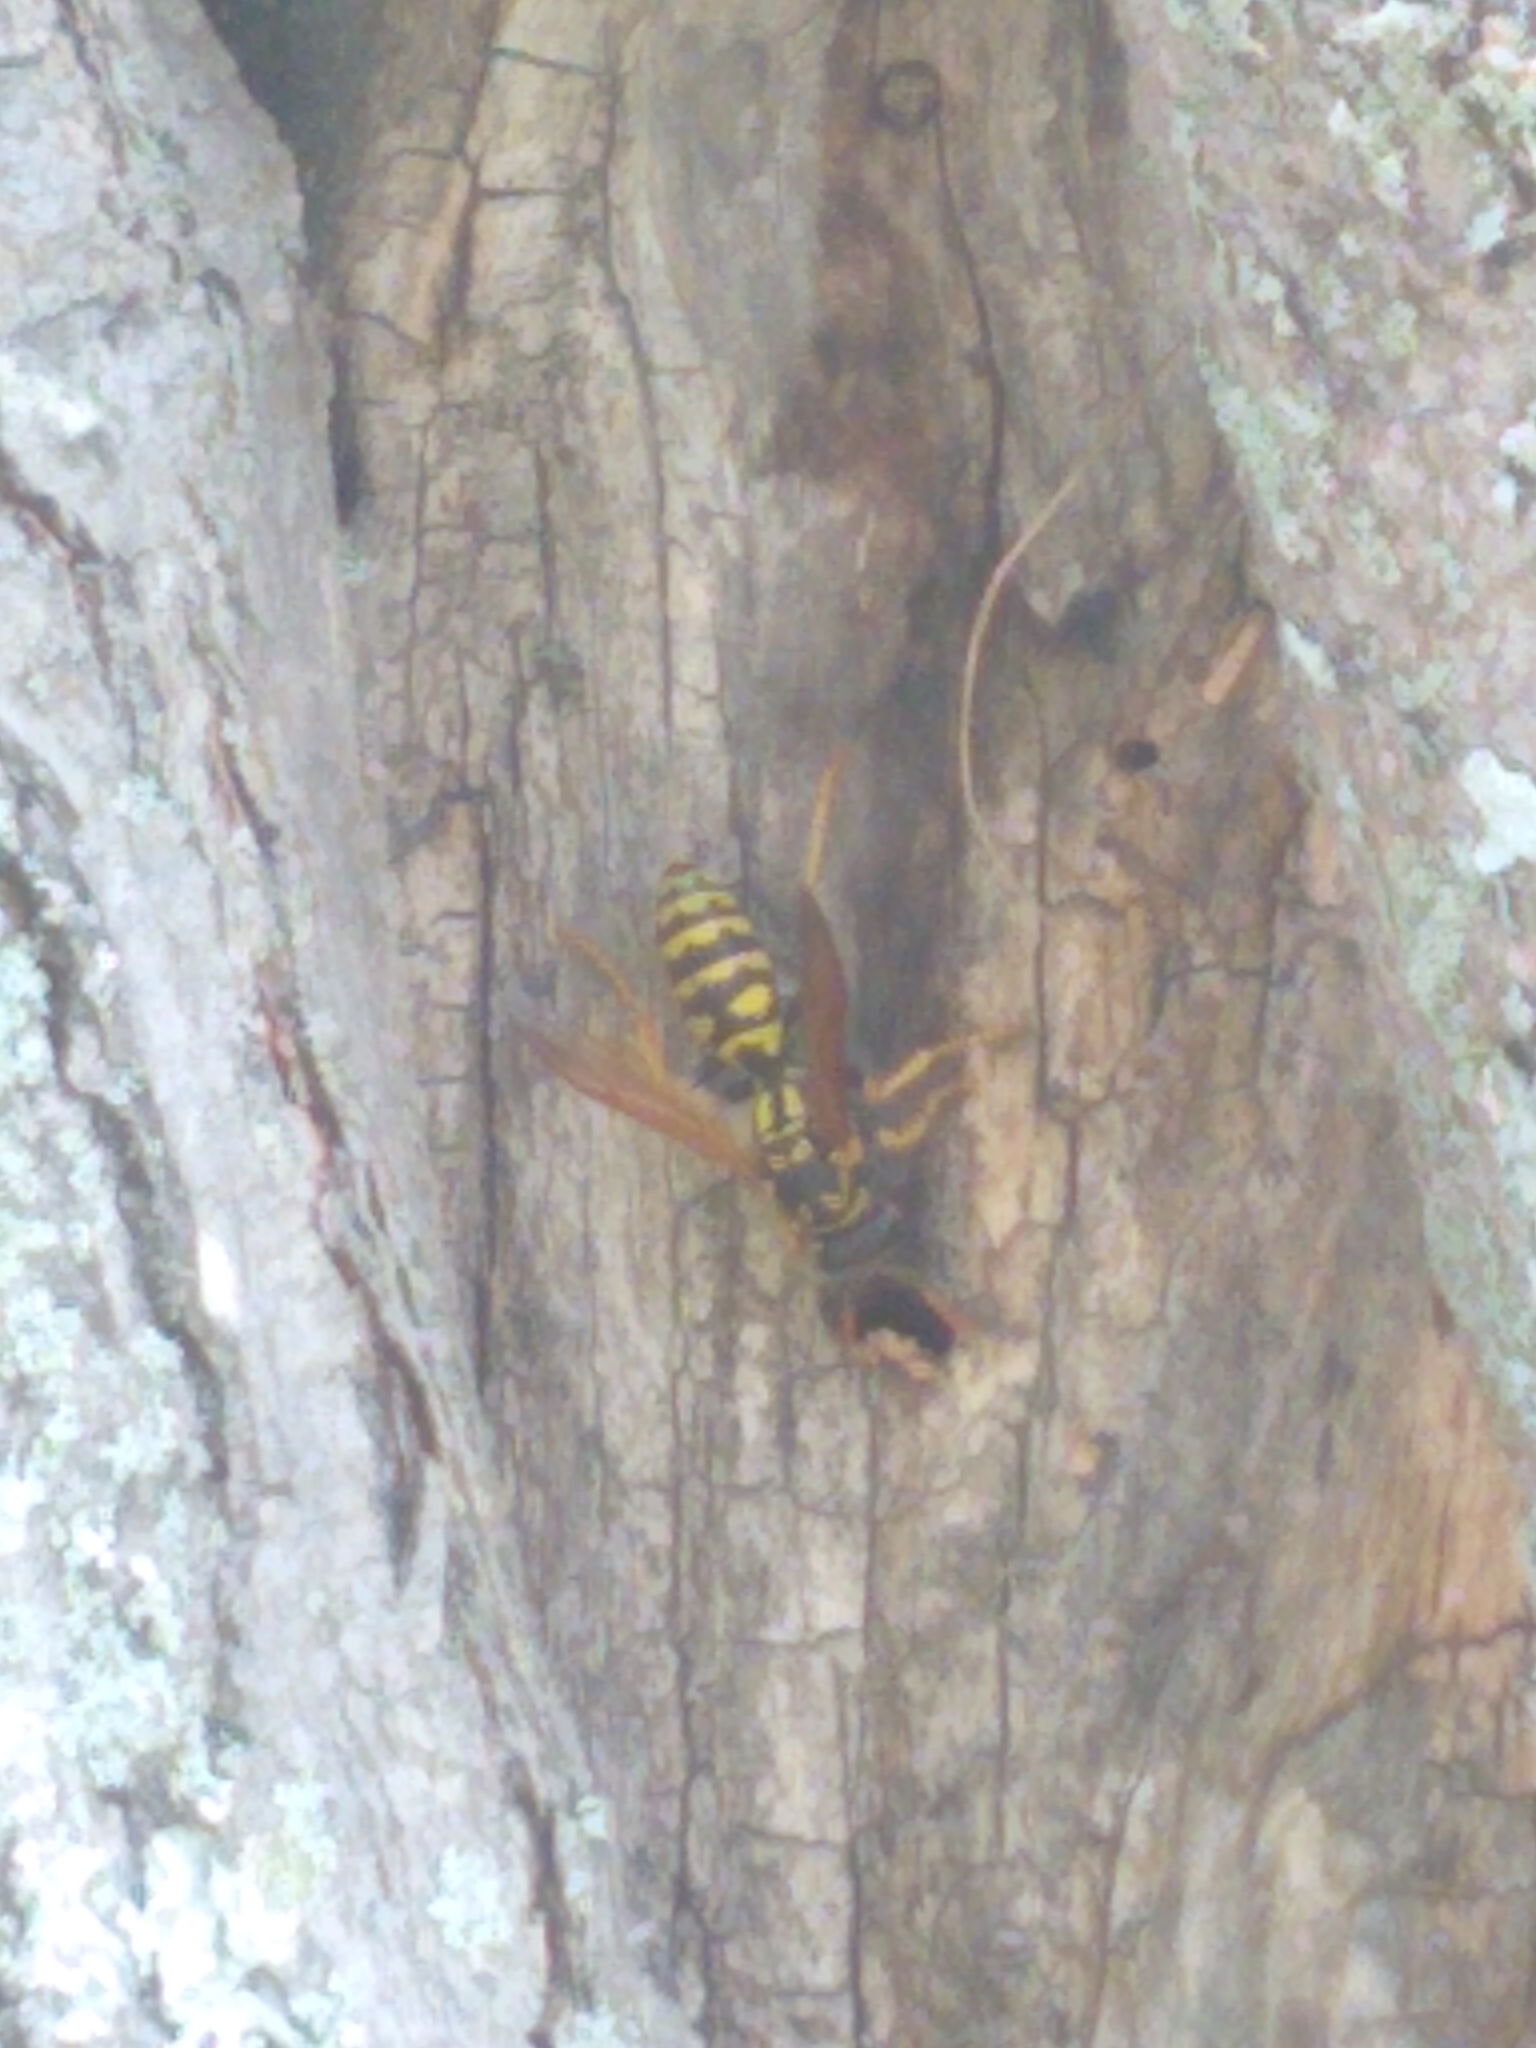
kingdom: Animalia
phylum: Arthropoda
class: Insecta
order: Hymenoptera
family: Eumenidae
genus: Polistes
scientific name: Polistes dominula
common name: Paper wasp
